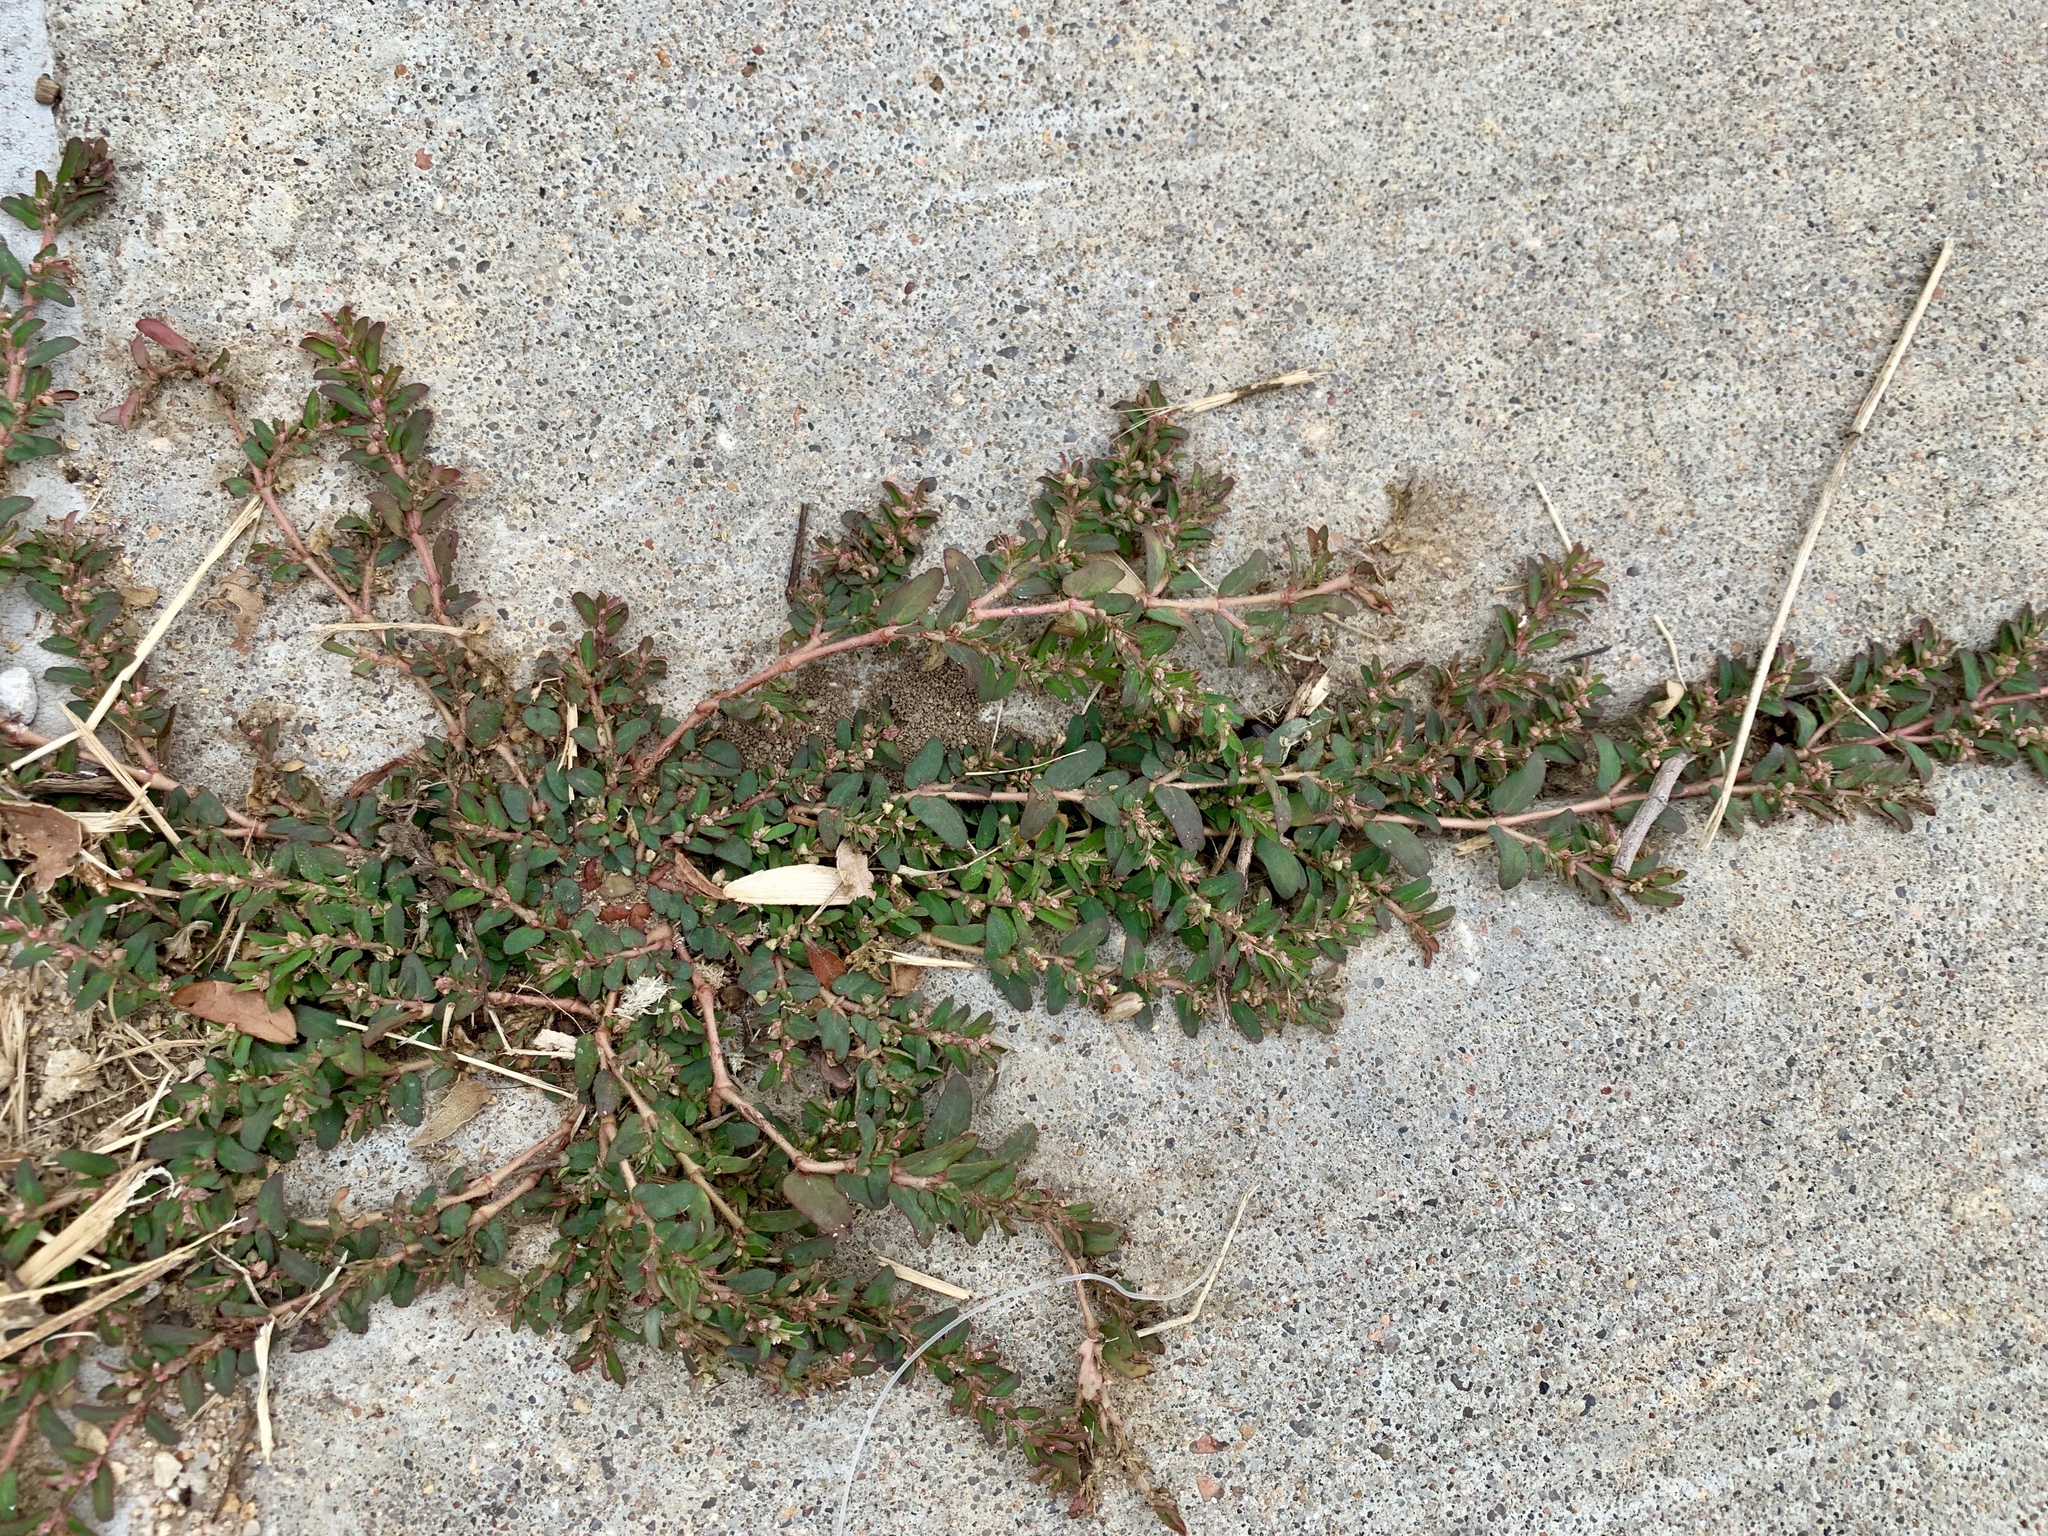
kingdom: Plantae
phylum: Tracheophyta
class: Magnoliopsida
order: Malpighiales
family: Euphorbiaceae
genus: Euphorbia
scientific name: Euphorbia maculata
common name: Spotted spurge
